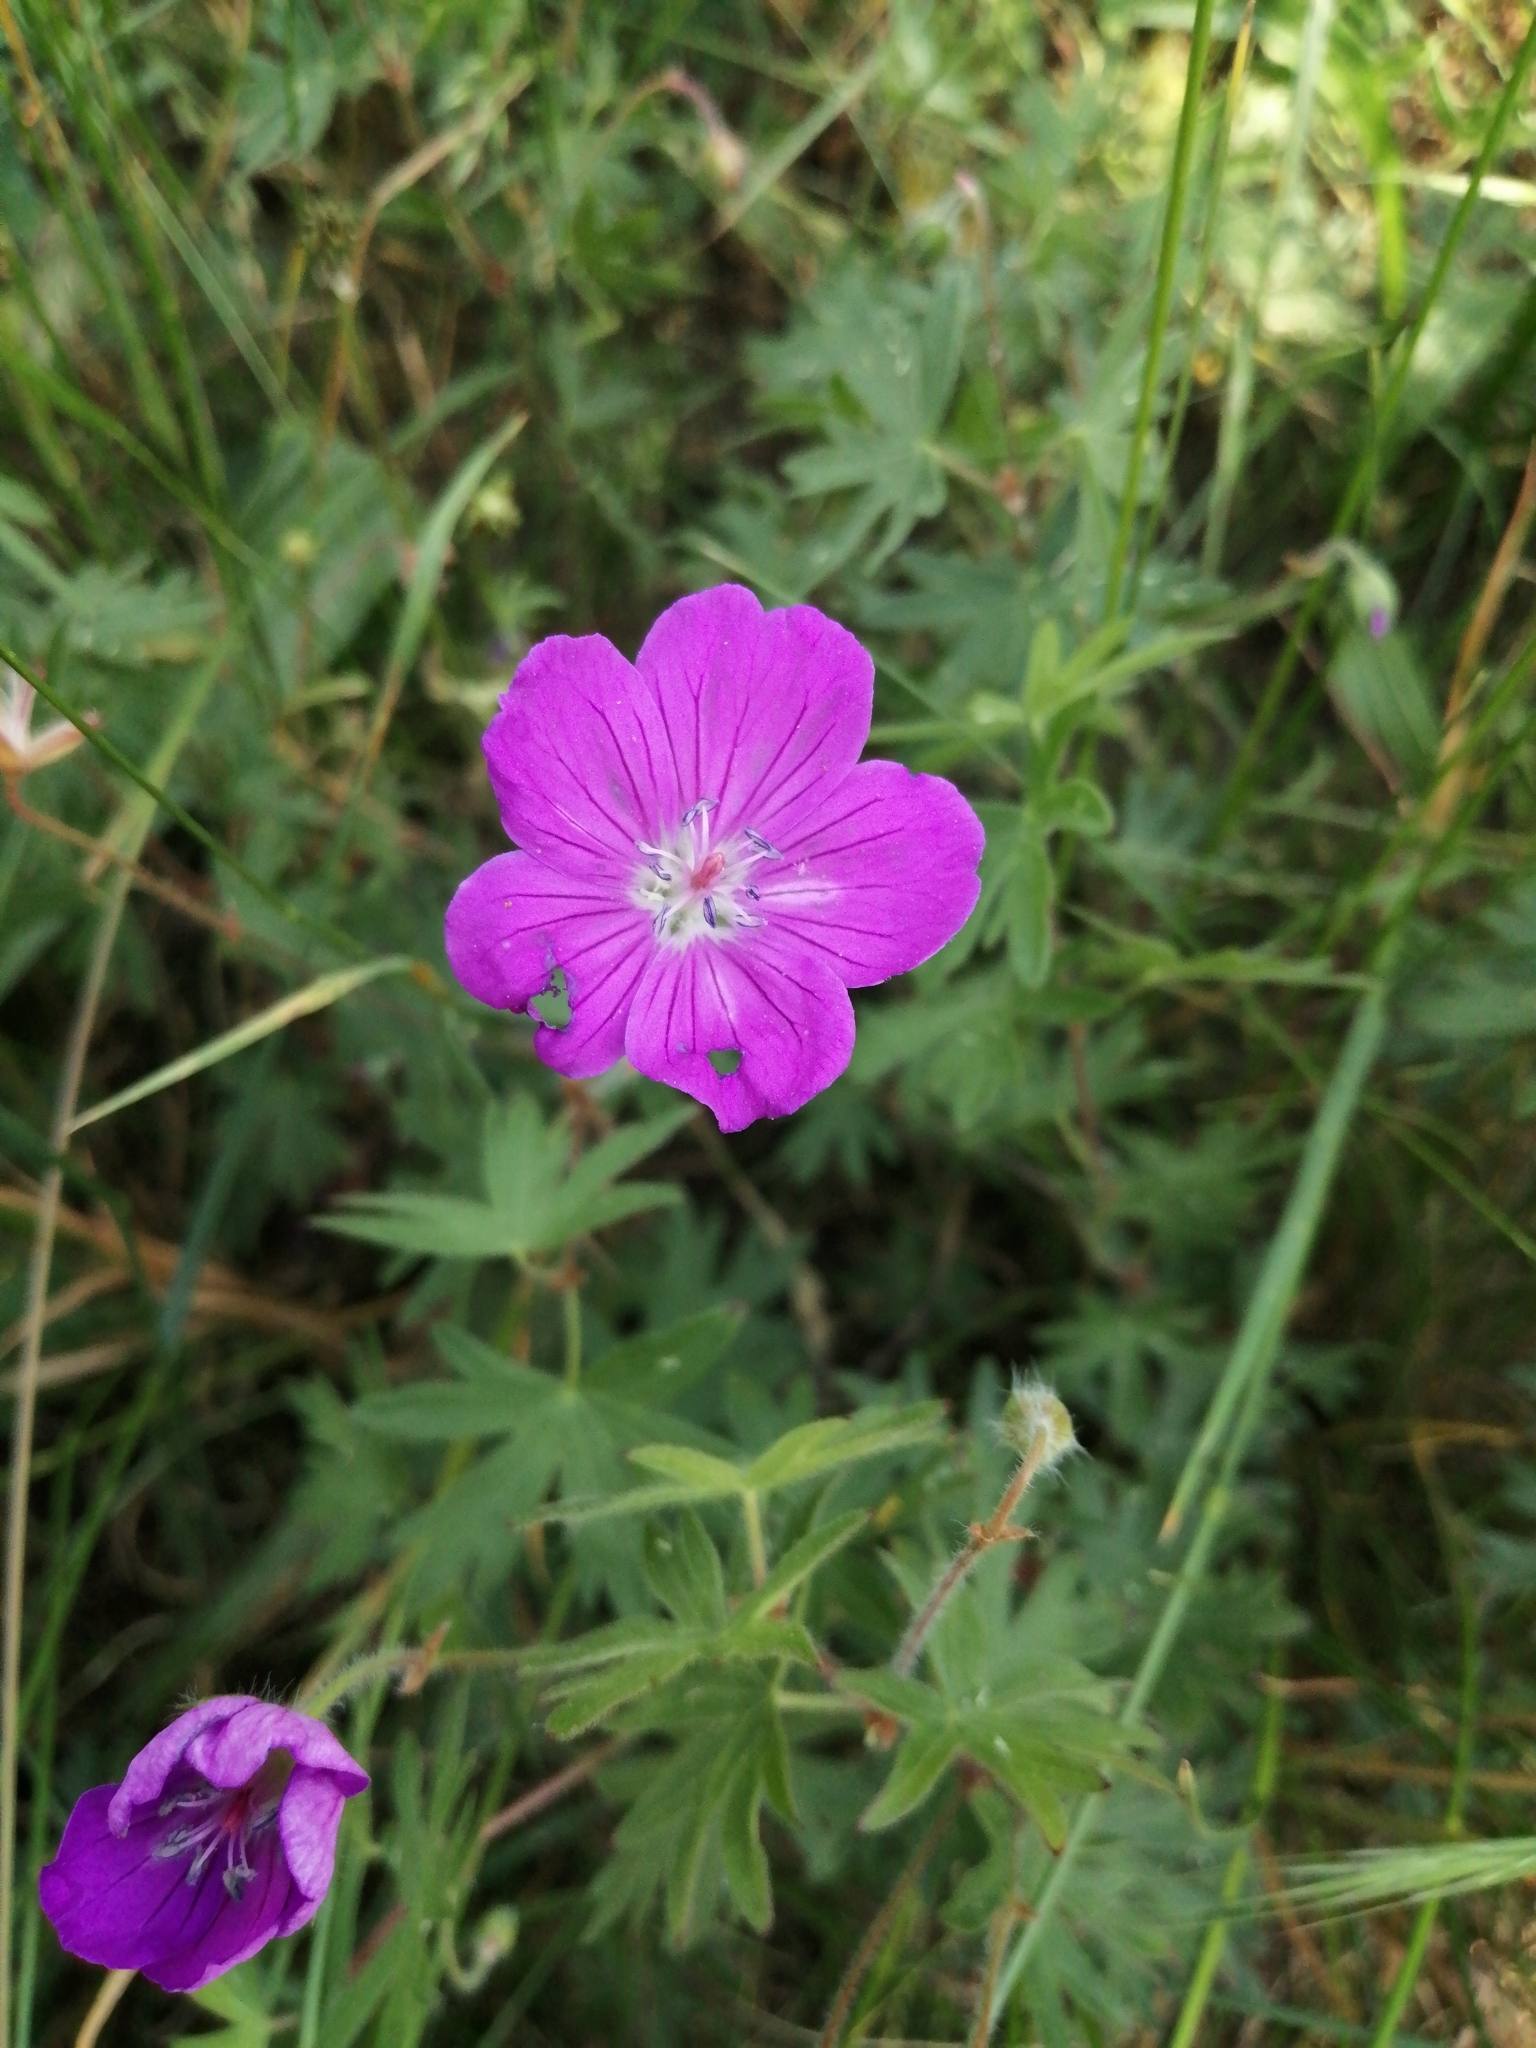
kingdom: Plantae
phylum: Tracheophyta
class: Magnoliopsida
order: Geraniales
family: Geraniaceae
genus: Geranium
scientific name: Geranium sanguineum
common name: Bloody crane's-bill
